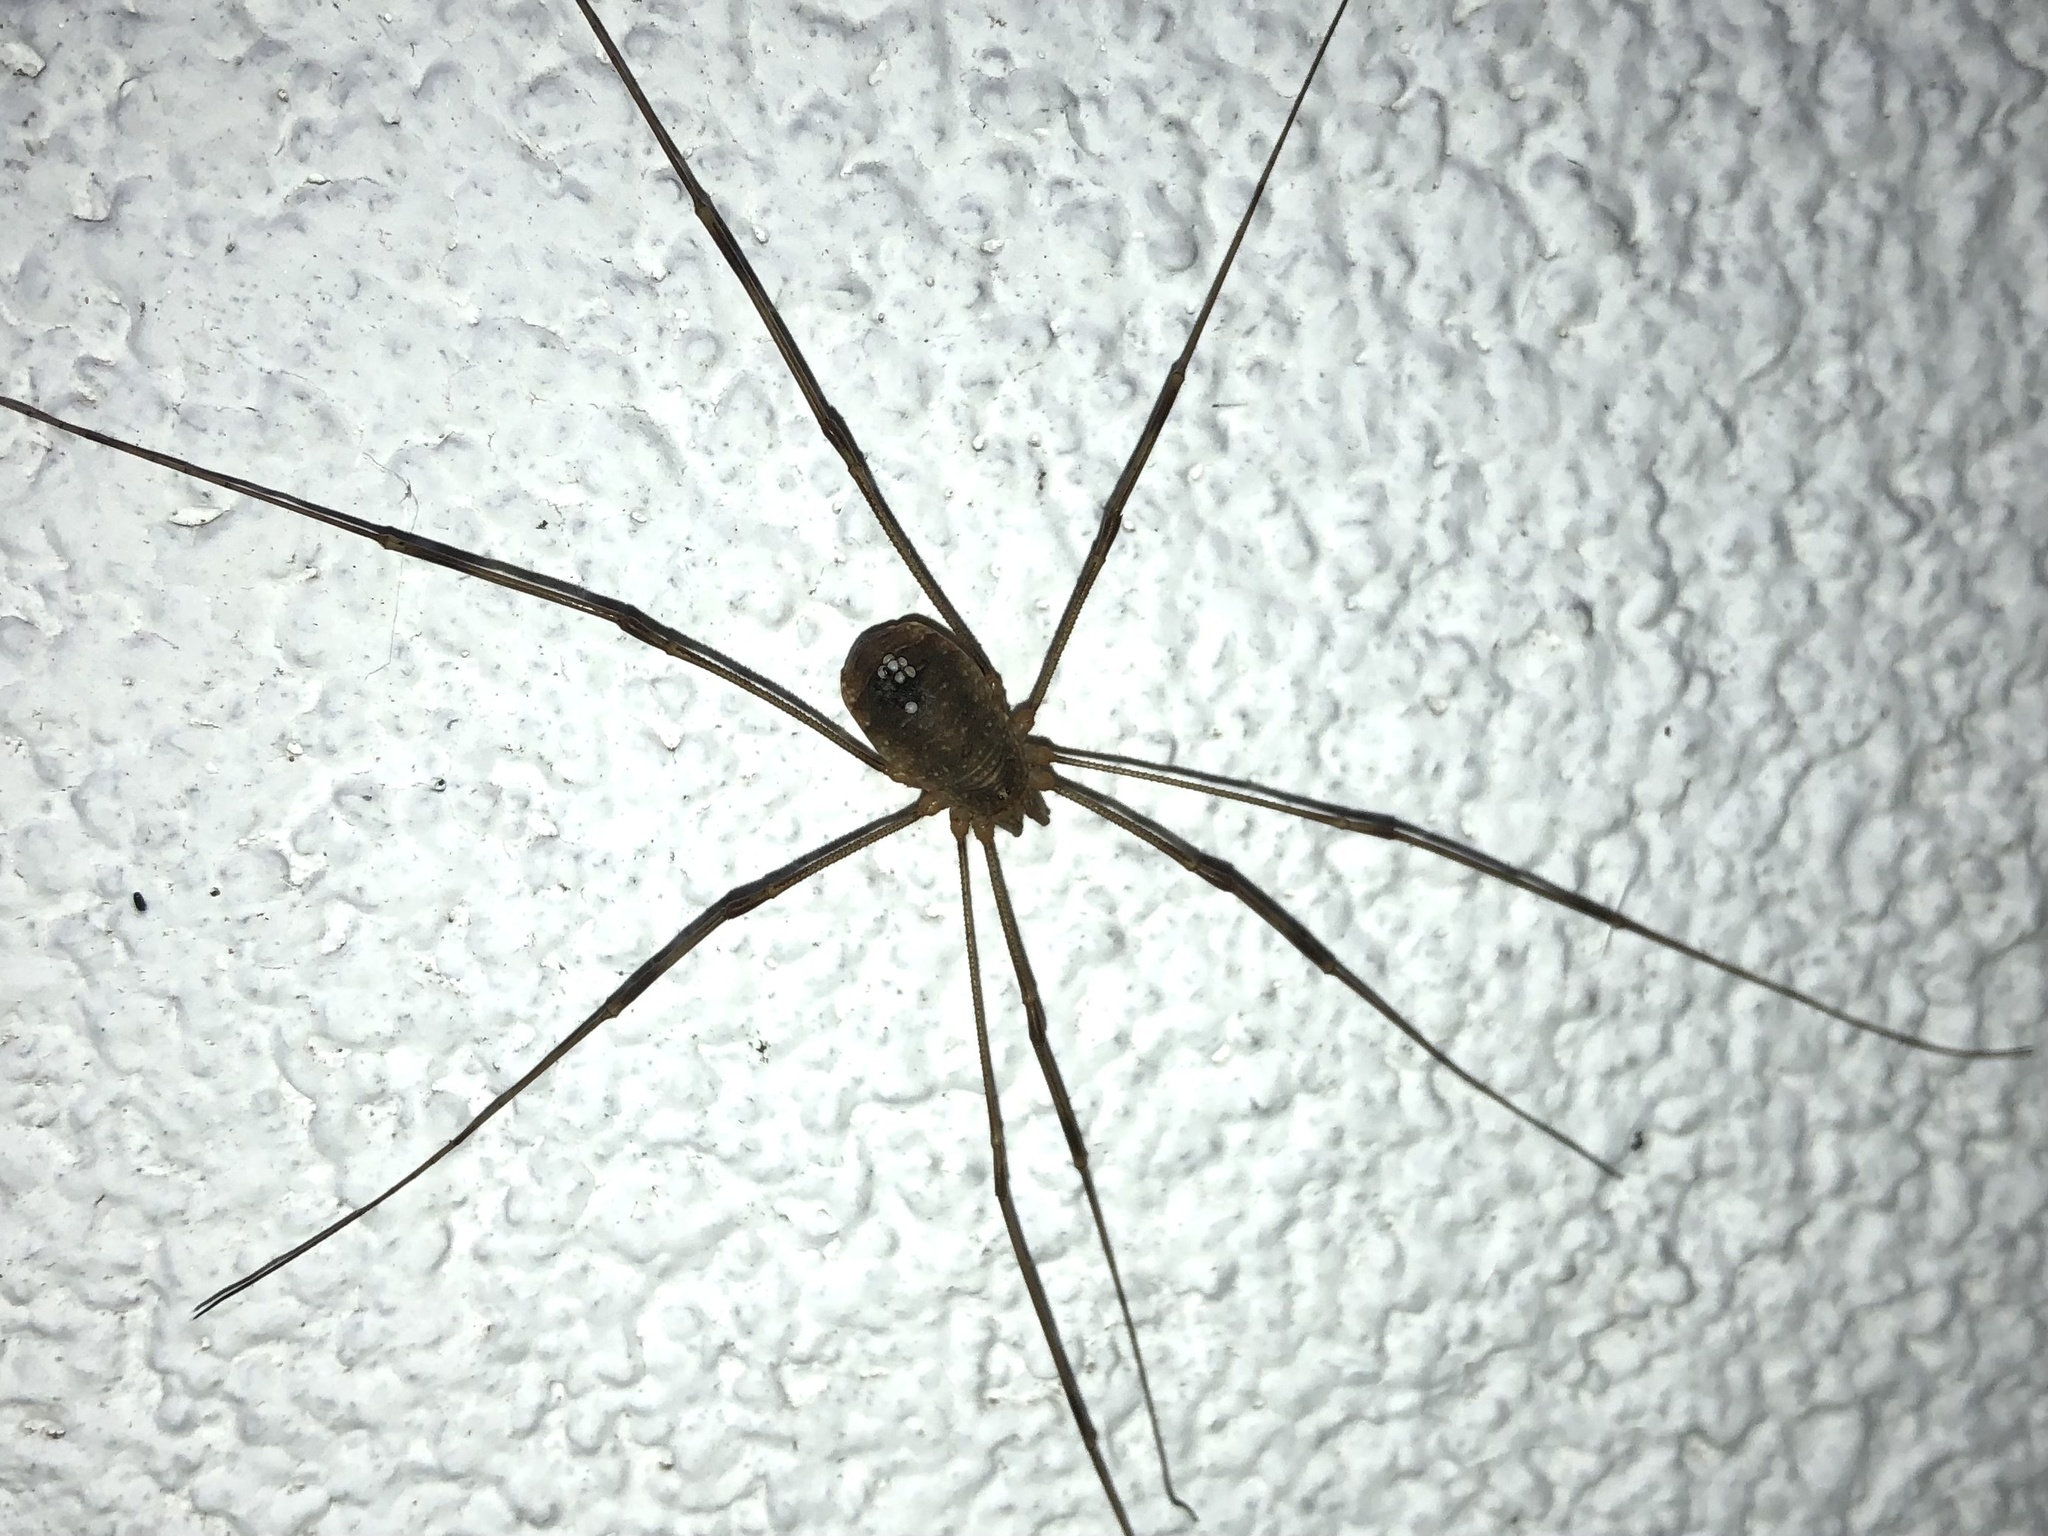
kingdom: Animalia
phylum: Arthropoda
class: Arachnida
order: Opiliones
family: Phalangiidae
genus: Opilio
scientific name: Opilio canestrinii
